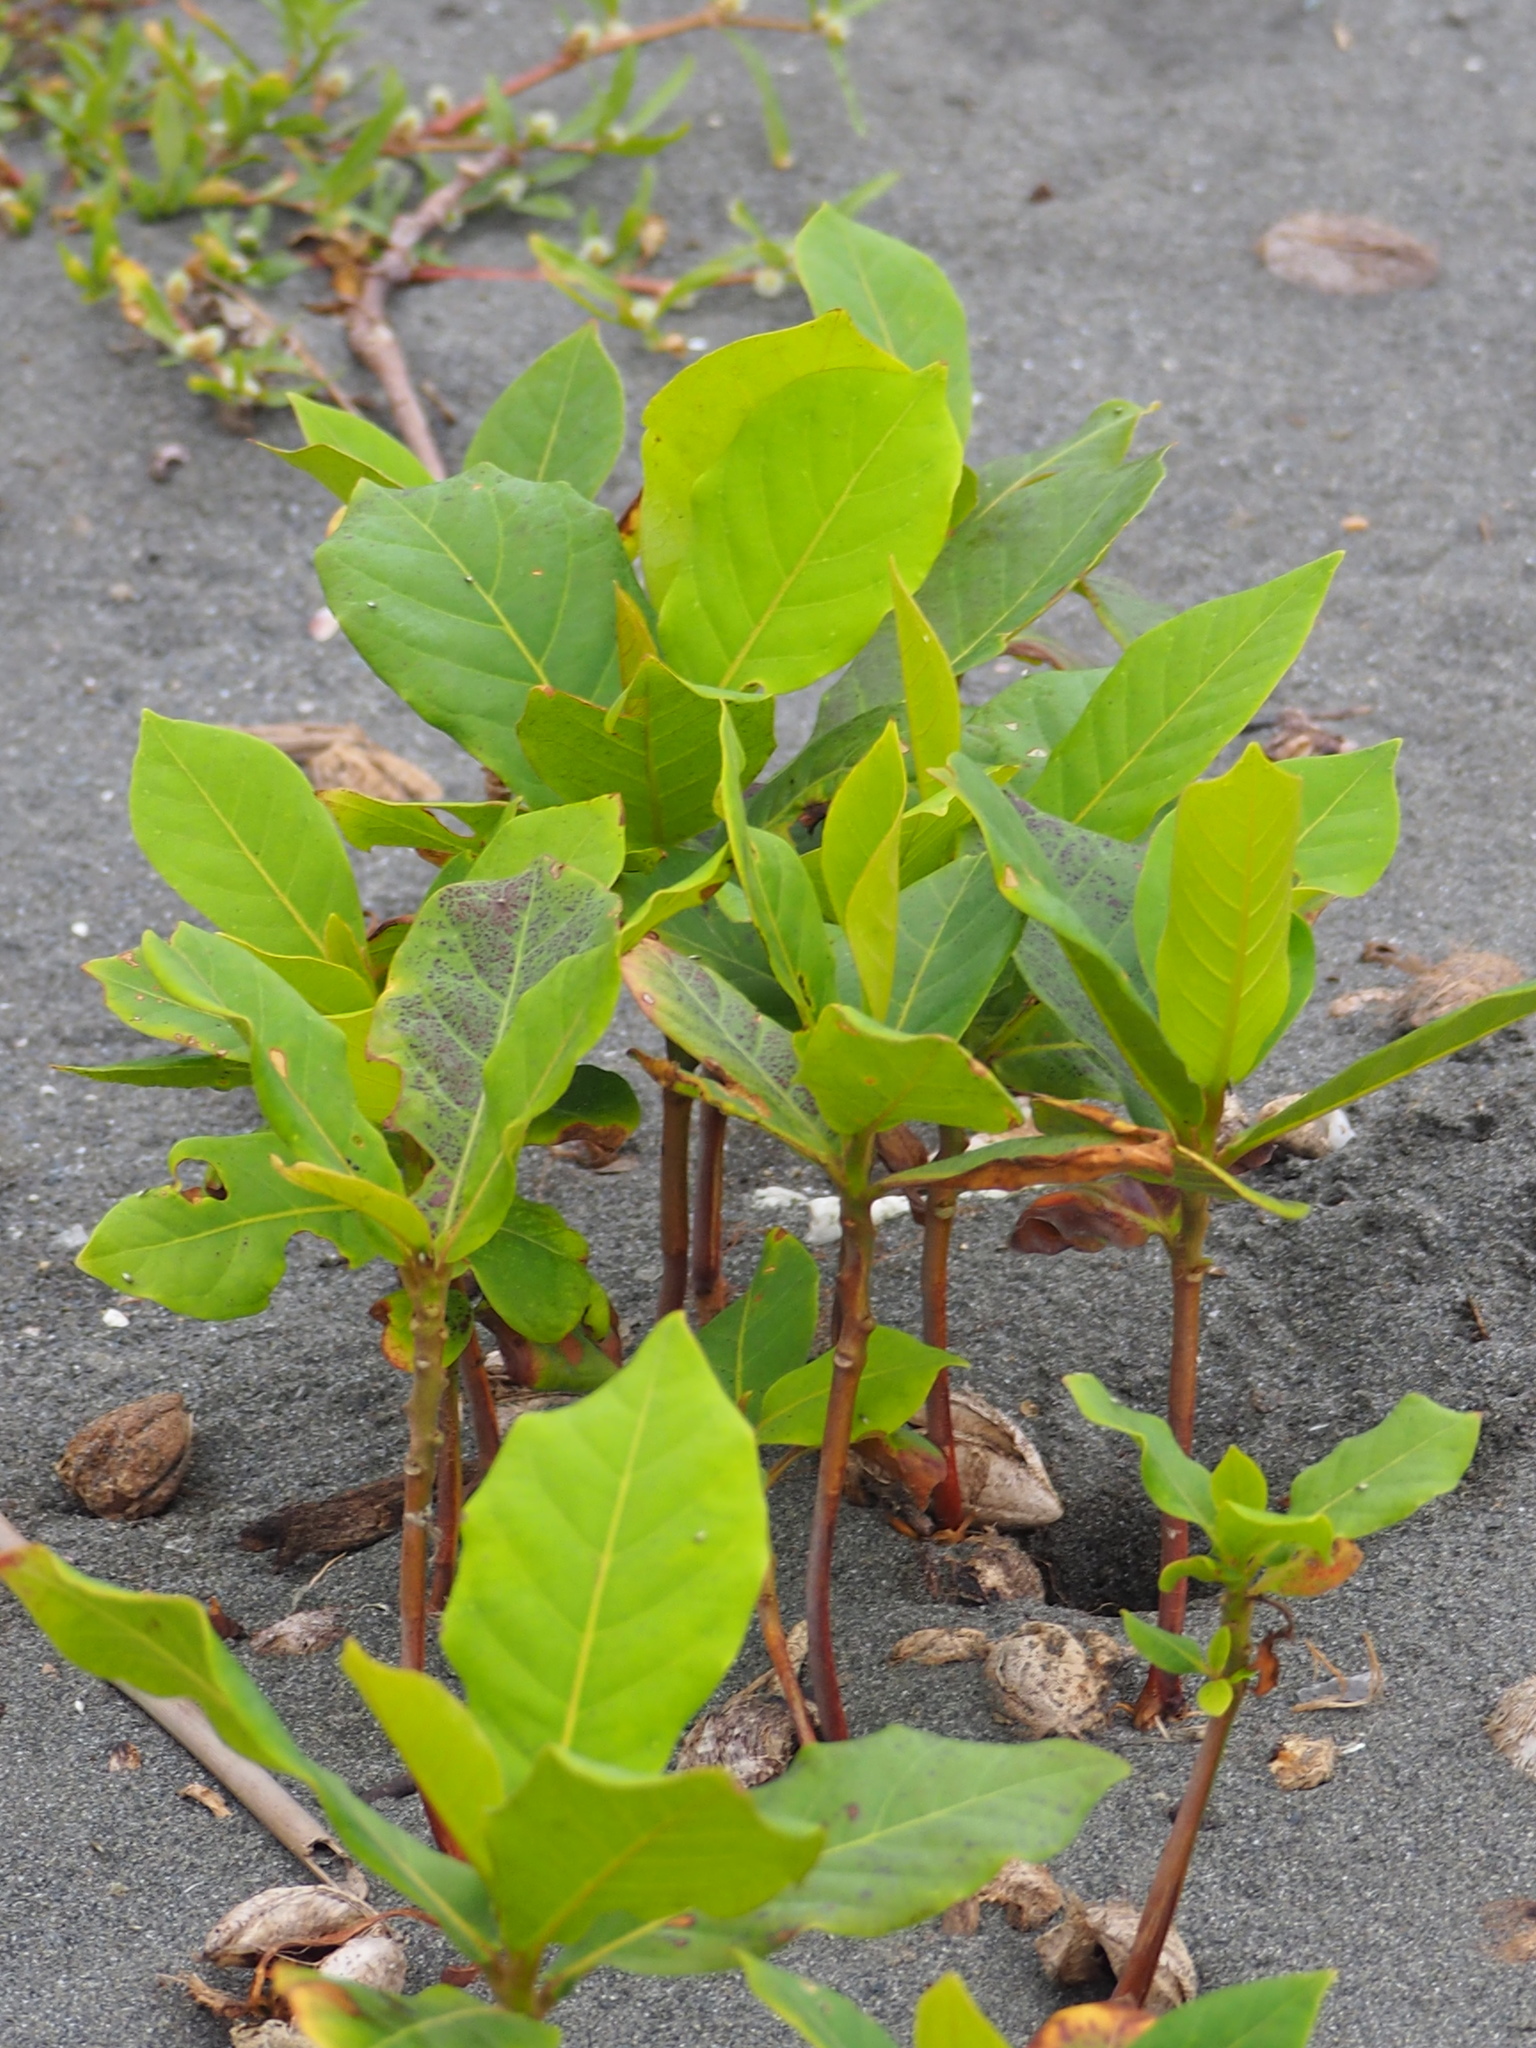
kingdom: Plantae
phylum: Tracheophyta
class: Magnoliopsida
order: Myrtales
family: Combretaceae
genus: Terminalia
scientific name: Terminalia catappa
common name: Tropical almond
